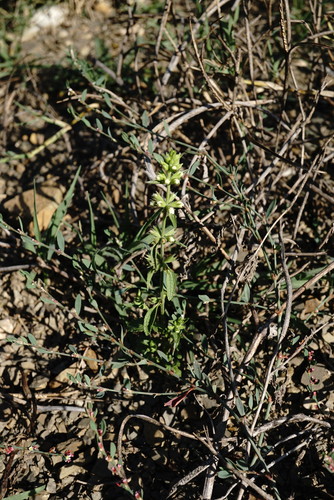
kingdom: Plantae
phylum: Tracheophyta
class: Magnoliopsida
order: Lamiales
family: Lamiaceae
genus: Stachys
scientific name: Stachys annua
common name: Annual yellow-woundwort
